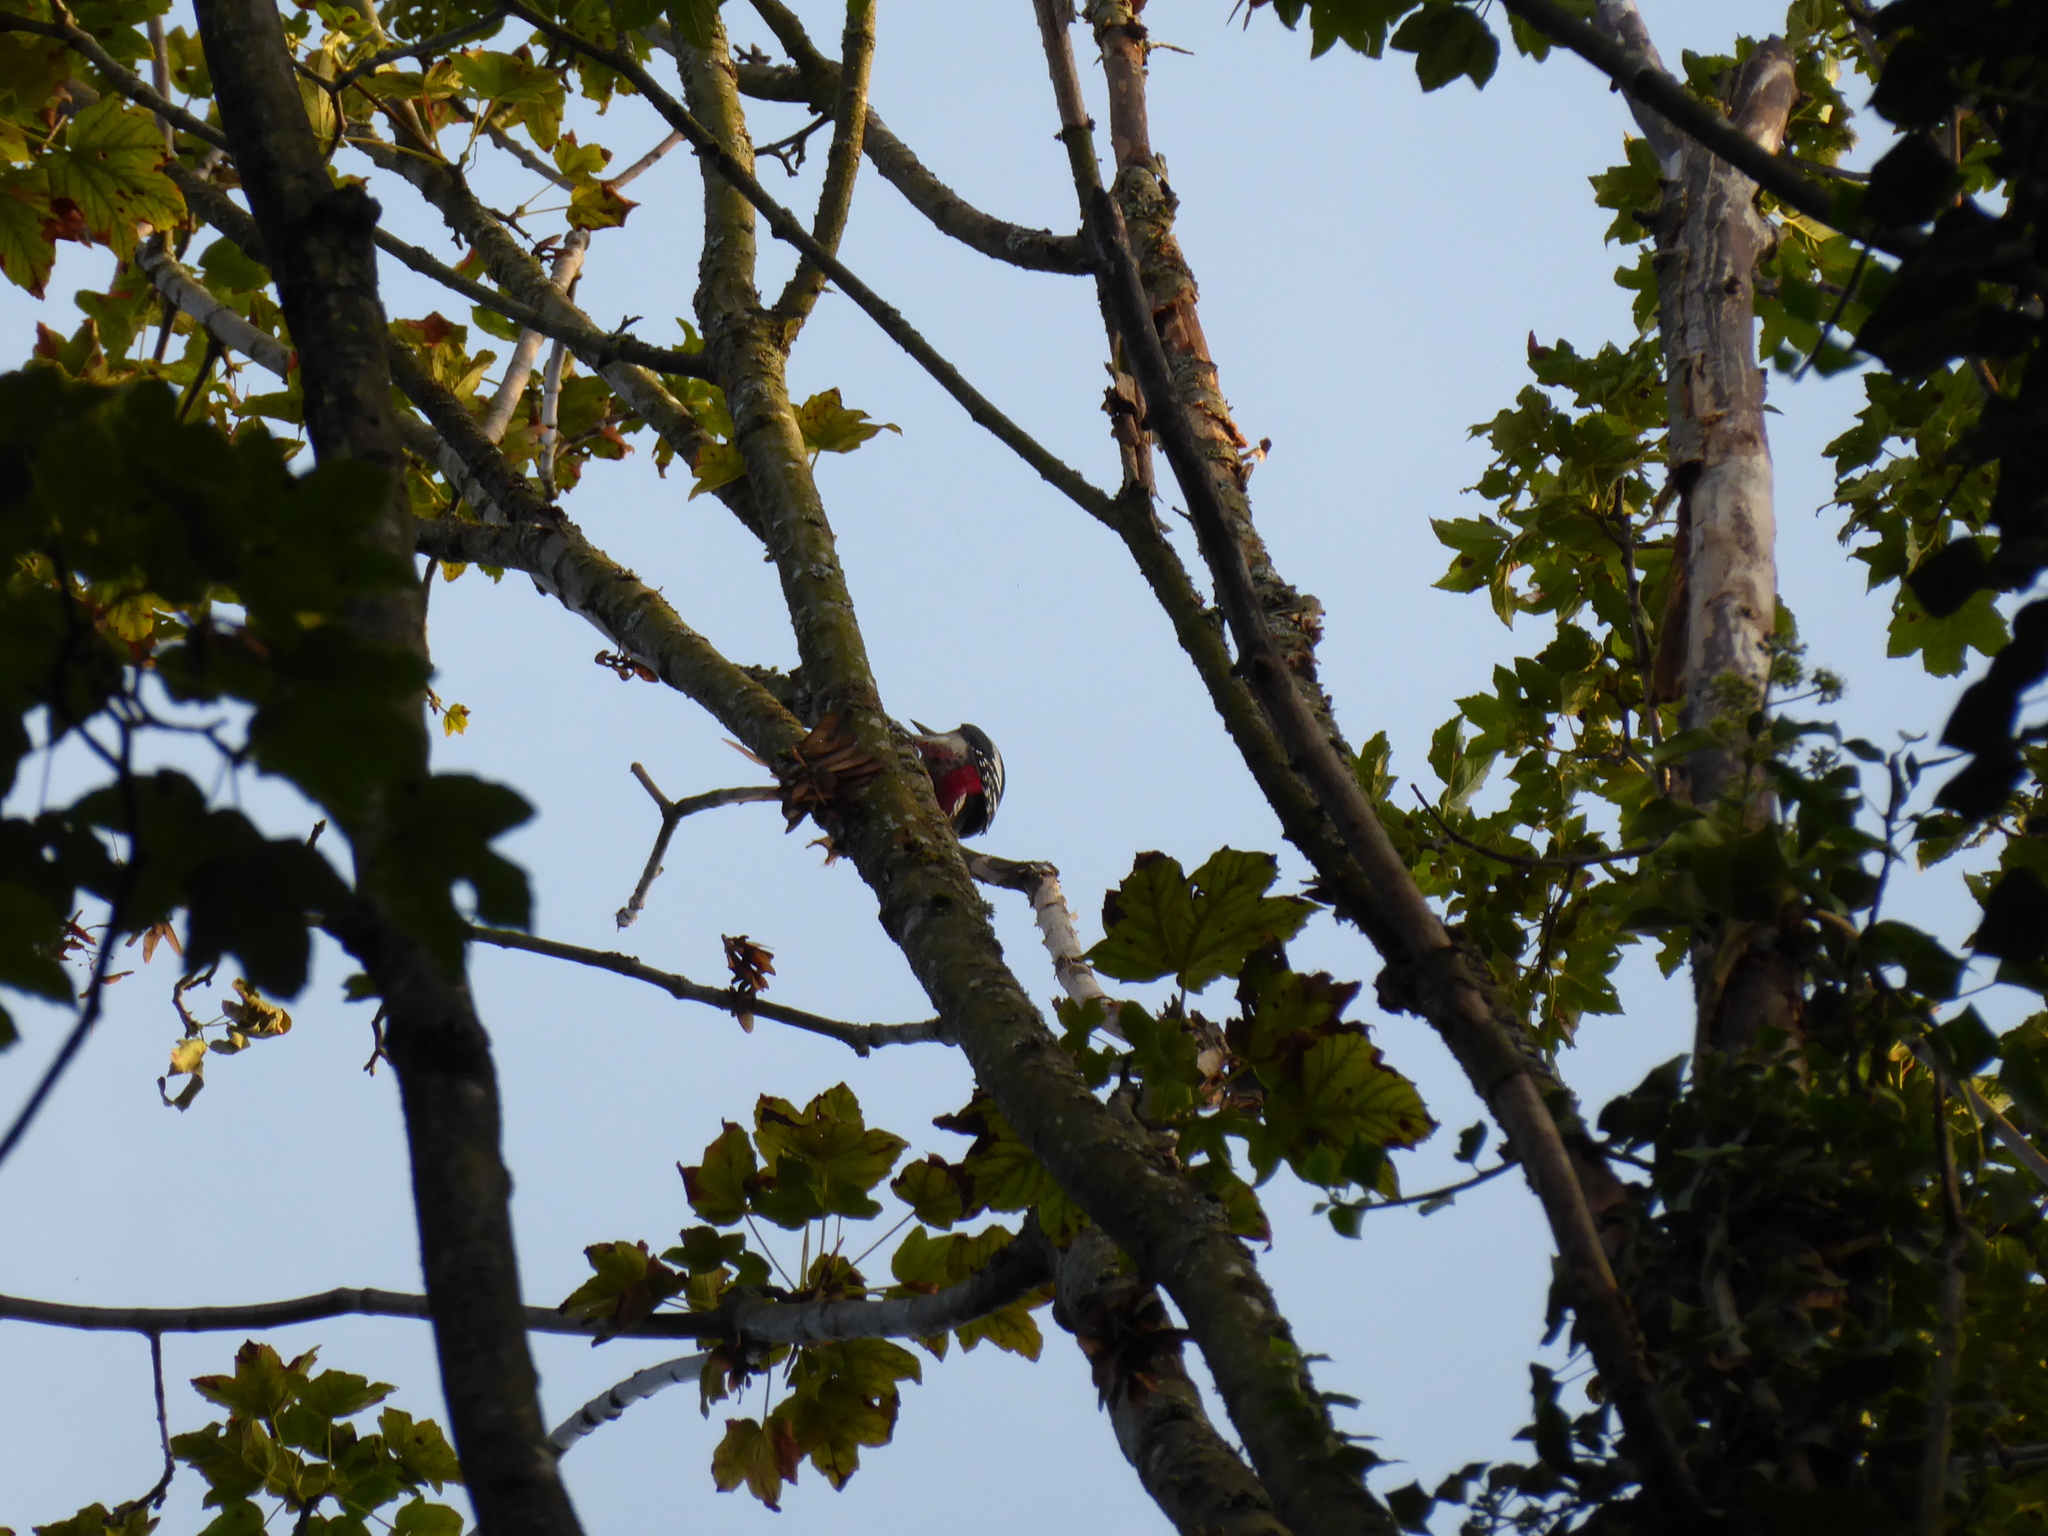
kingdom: Animalia
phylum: Chordata
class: Aves
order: Piciformes
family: Picidae
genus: Dendrocopos
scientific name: Dendrocopos major
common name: Great spotted woodpecker
